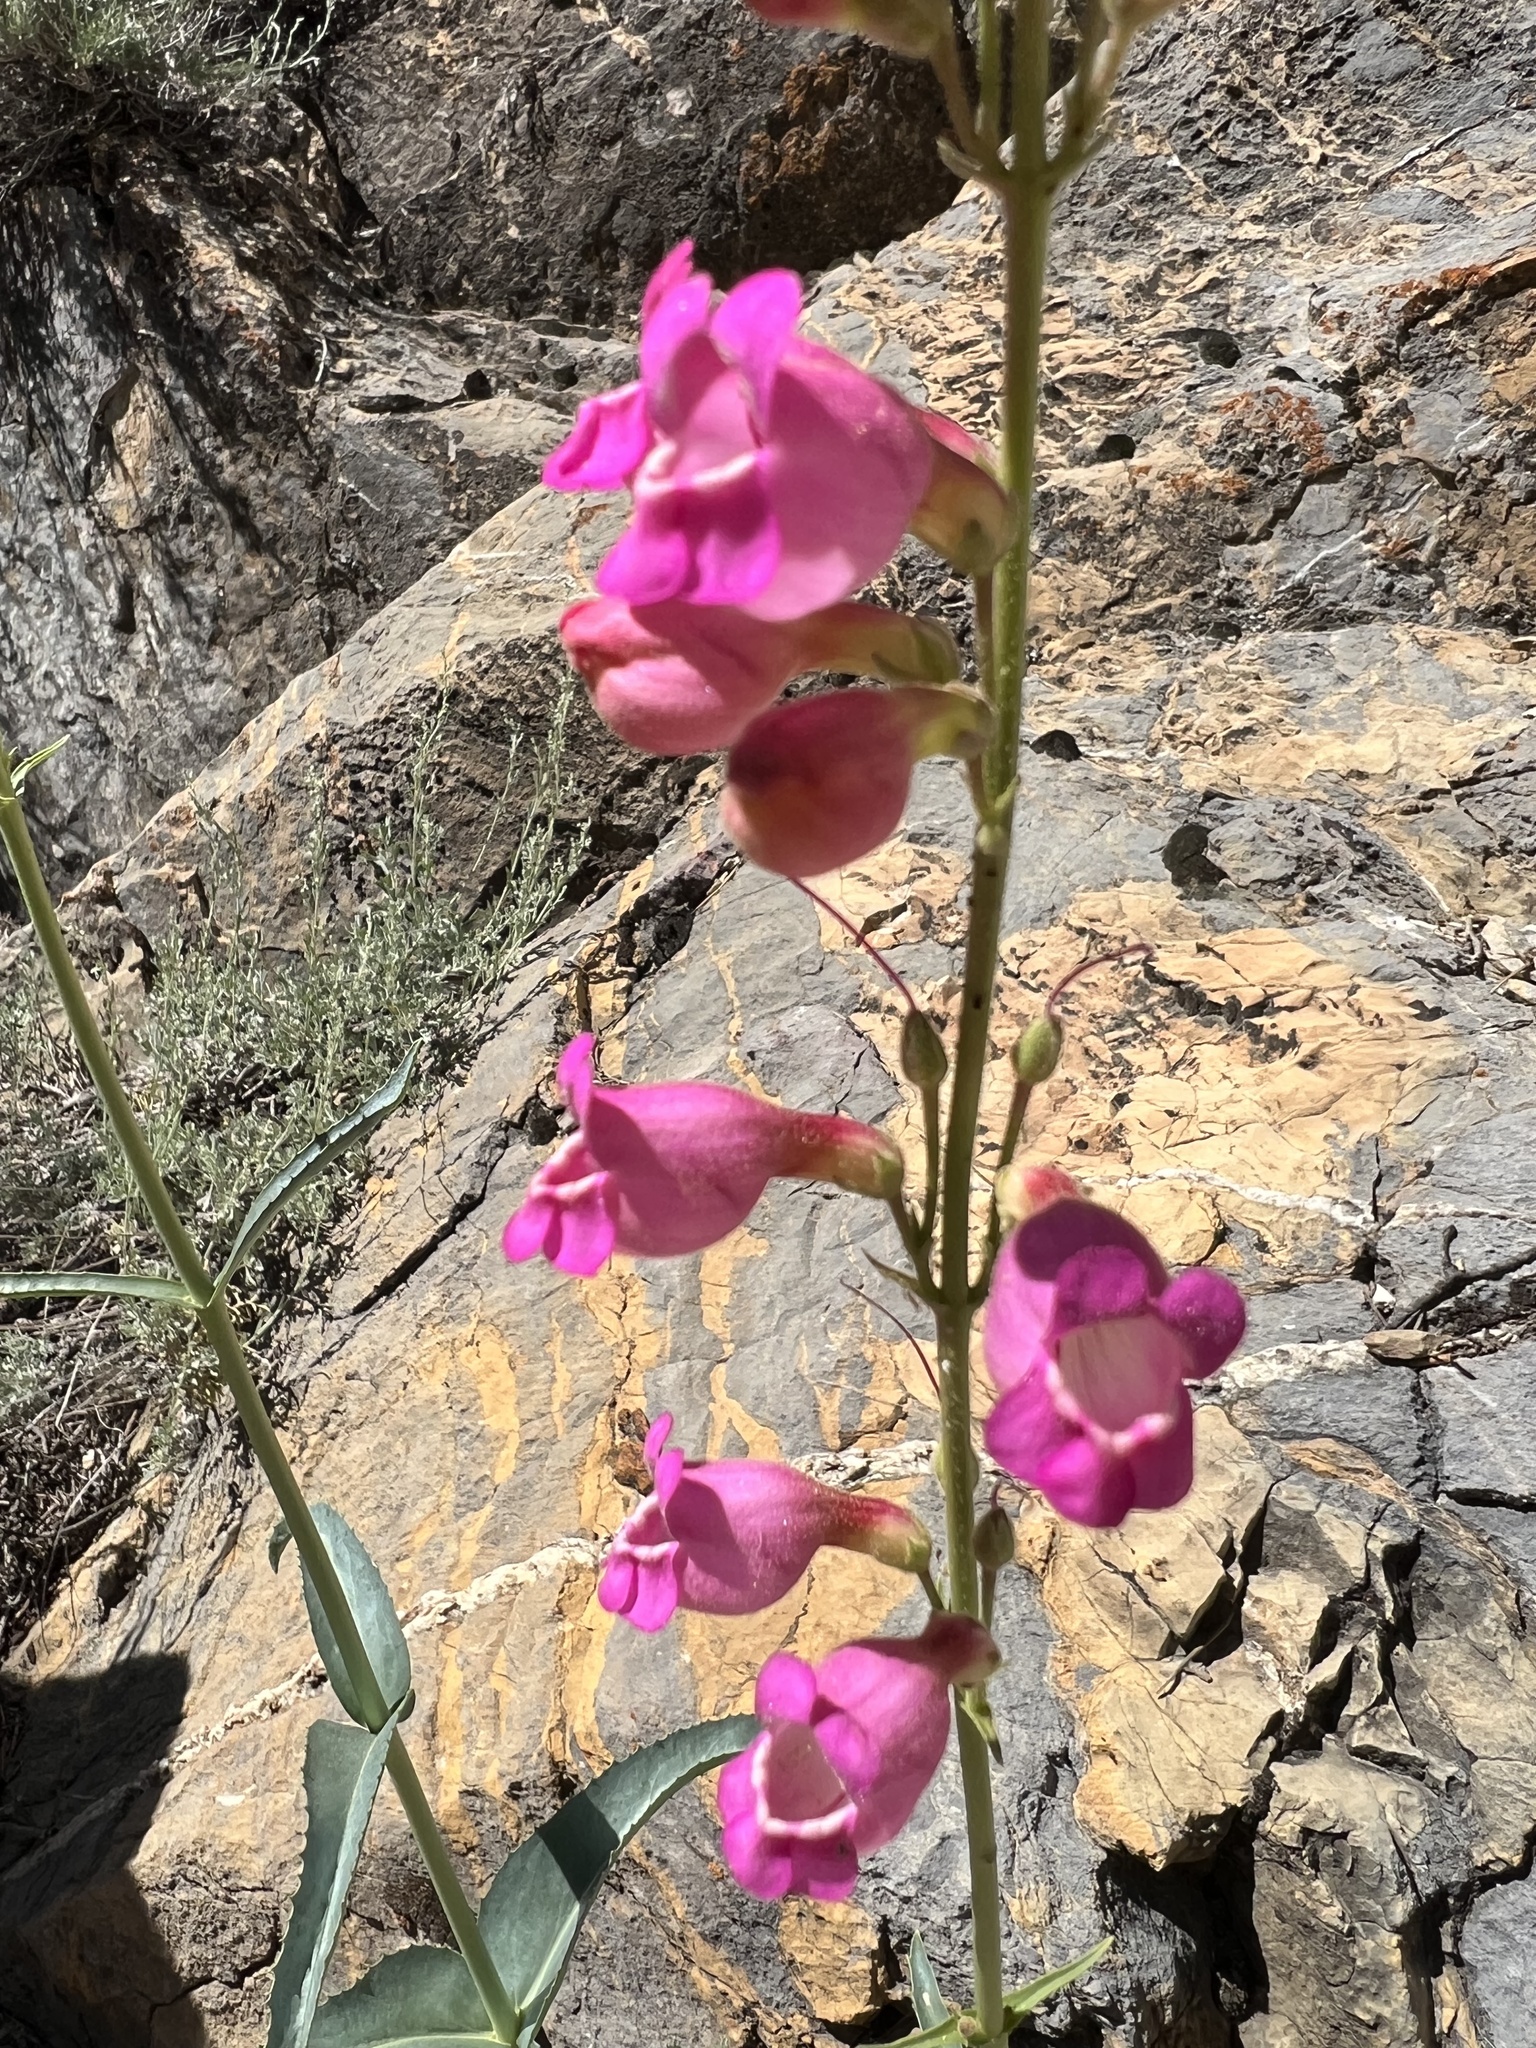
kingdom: Plantae
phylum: Tracheophyta
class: Magnoliopsida
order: Lamiales
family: Plantaginaceae
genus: Penstemon
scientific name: Penstemon floridus
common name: Panamint penstemon
